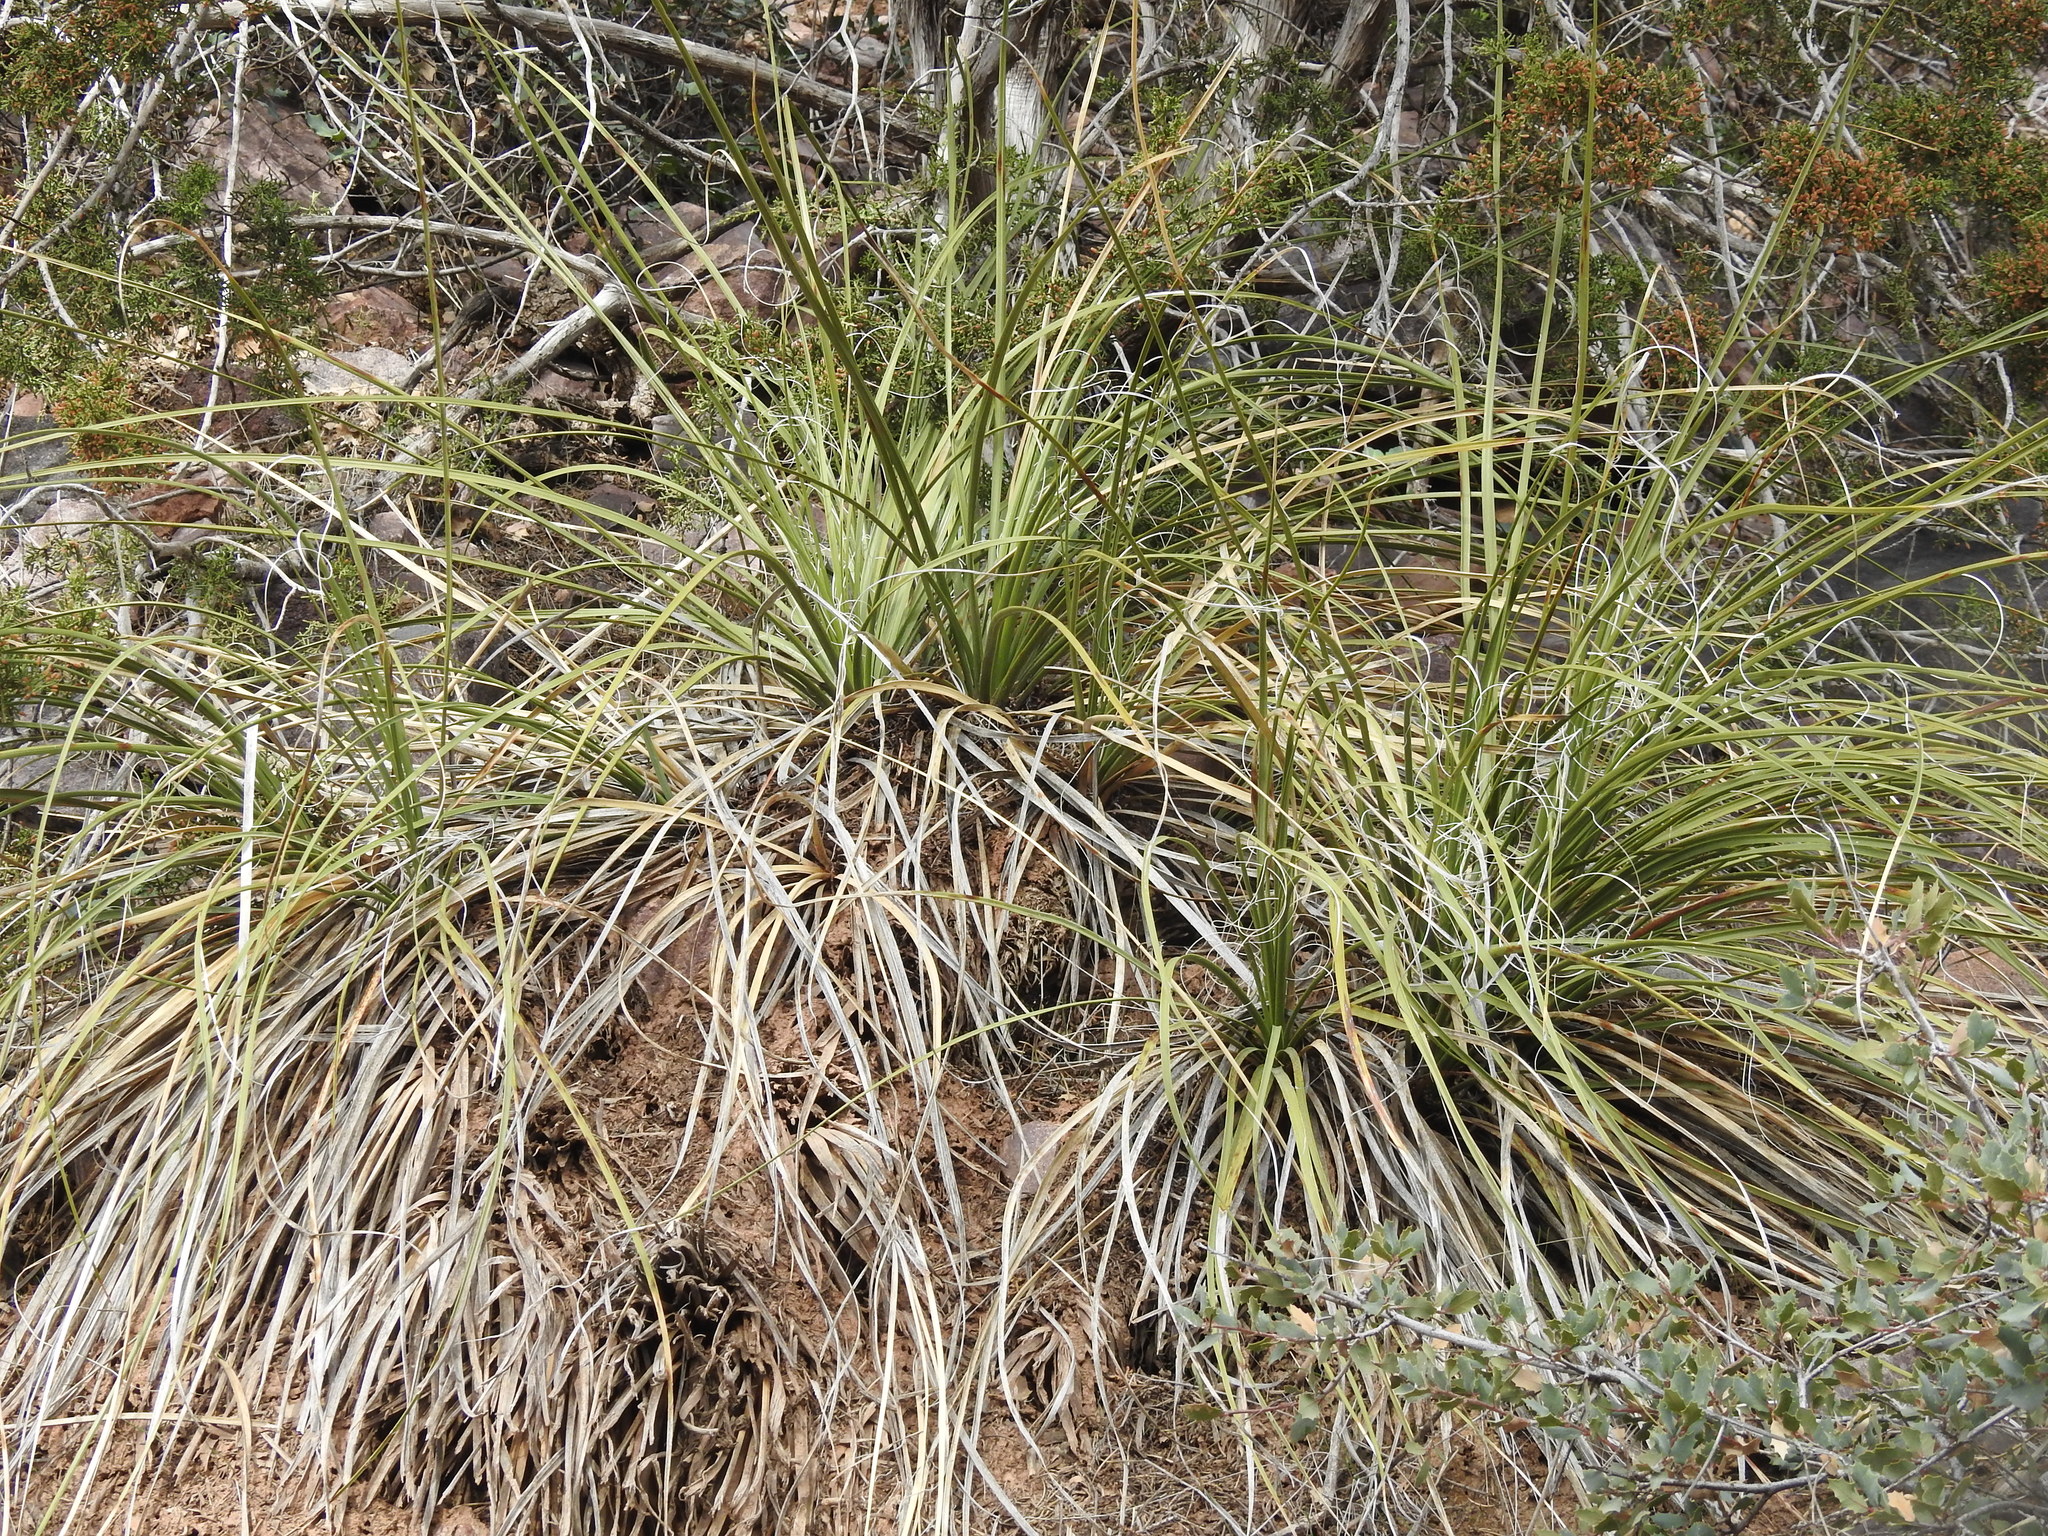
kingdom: Plantae
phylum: Tracheophyta
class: Liliopsida
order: Asparagales
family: Asparagaceae
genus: Nolina
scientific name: Nolina microcarpa
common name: Bear-grass
